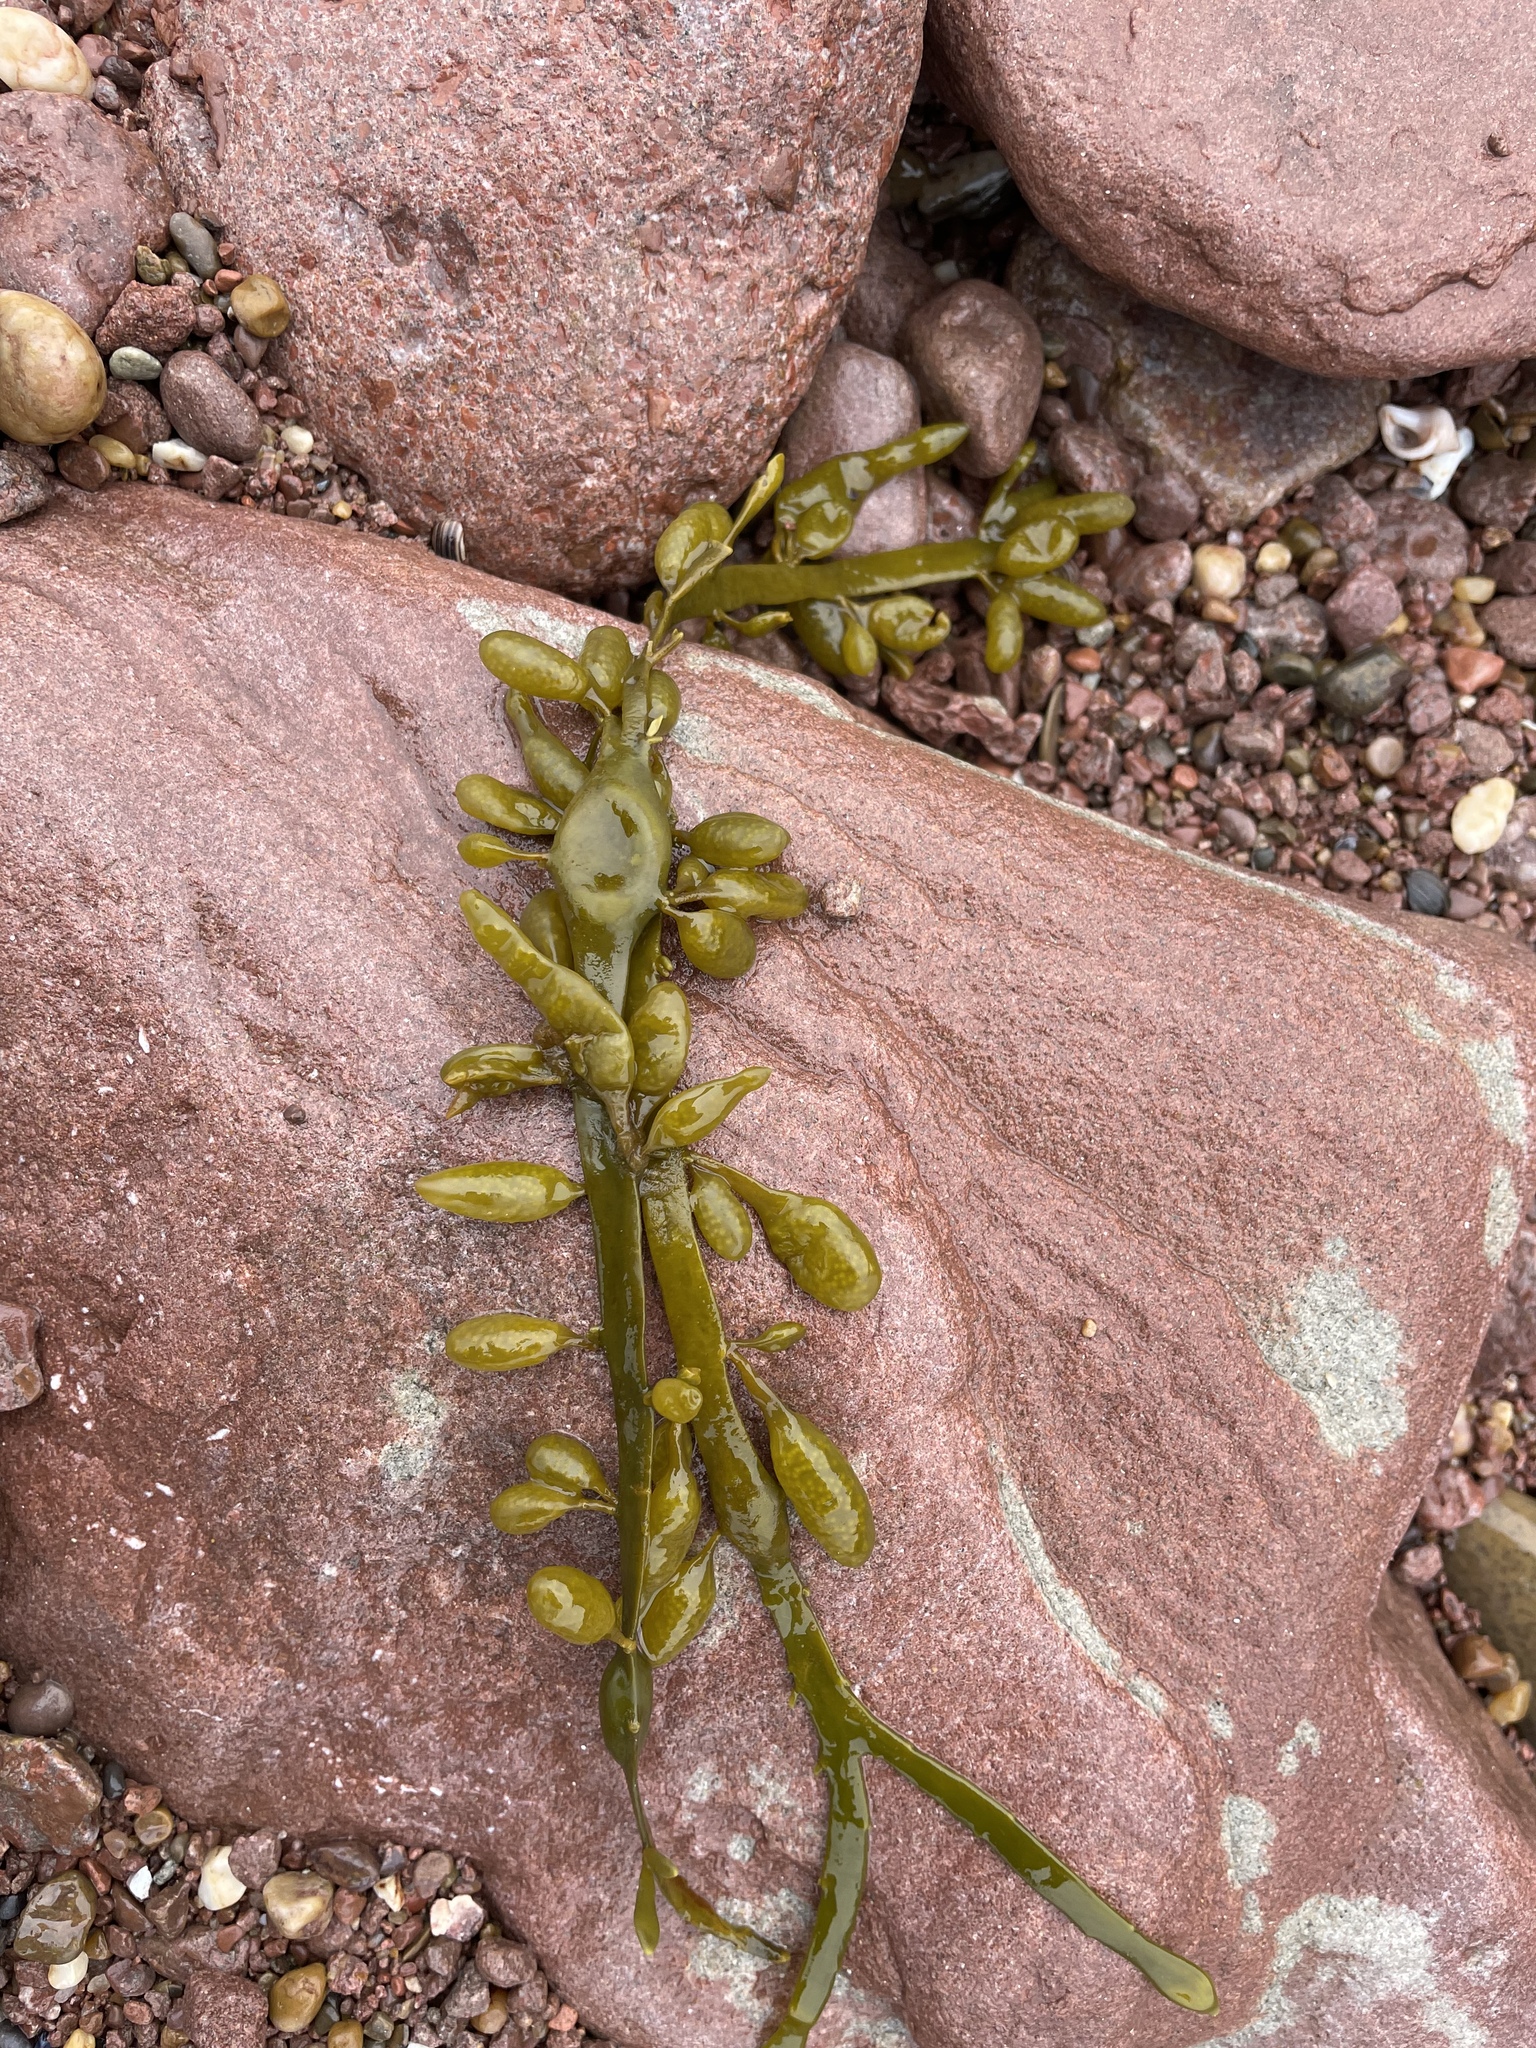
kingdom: Chromista
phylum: Ochrophyta
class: Phaeophyceae
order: Fucales
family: Fucaceae
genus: Ascophyllum
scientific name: Ascophyllum nodosum
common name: Knotted wrack
